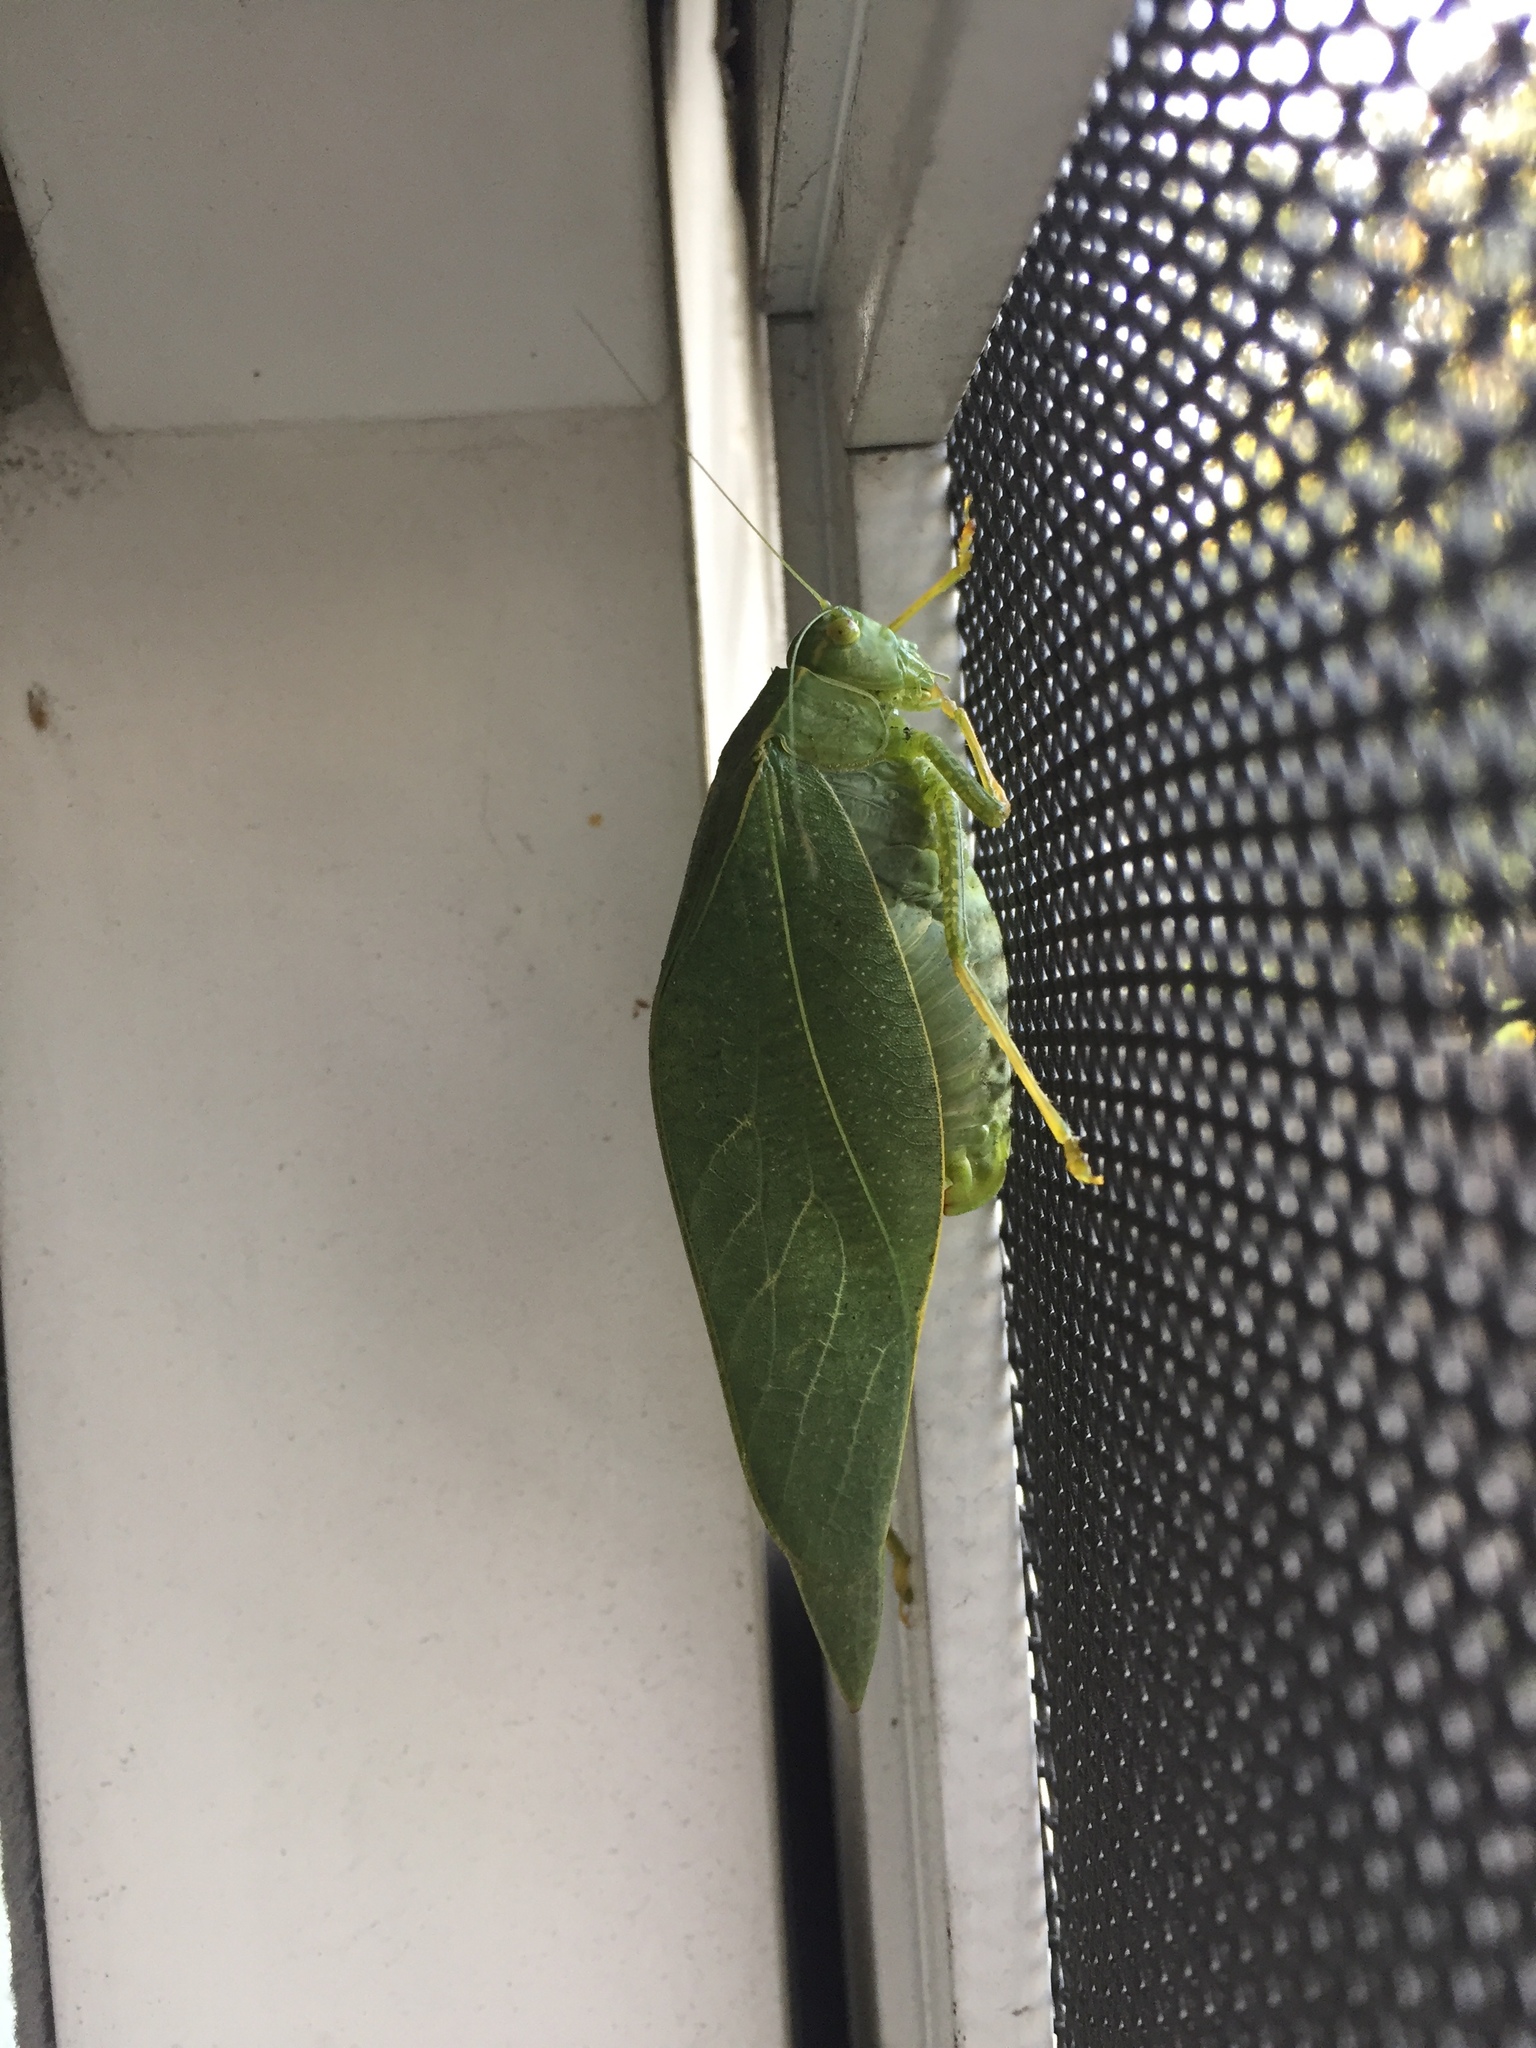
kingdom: Animalia
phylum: Arthropoda
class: Insecta
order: Orthoptera
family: Tettigoniidae
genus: Microcentrum
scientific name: Microcentrum californicum
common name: California angle-wing
